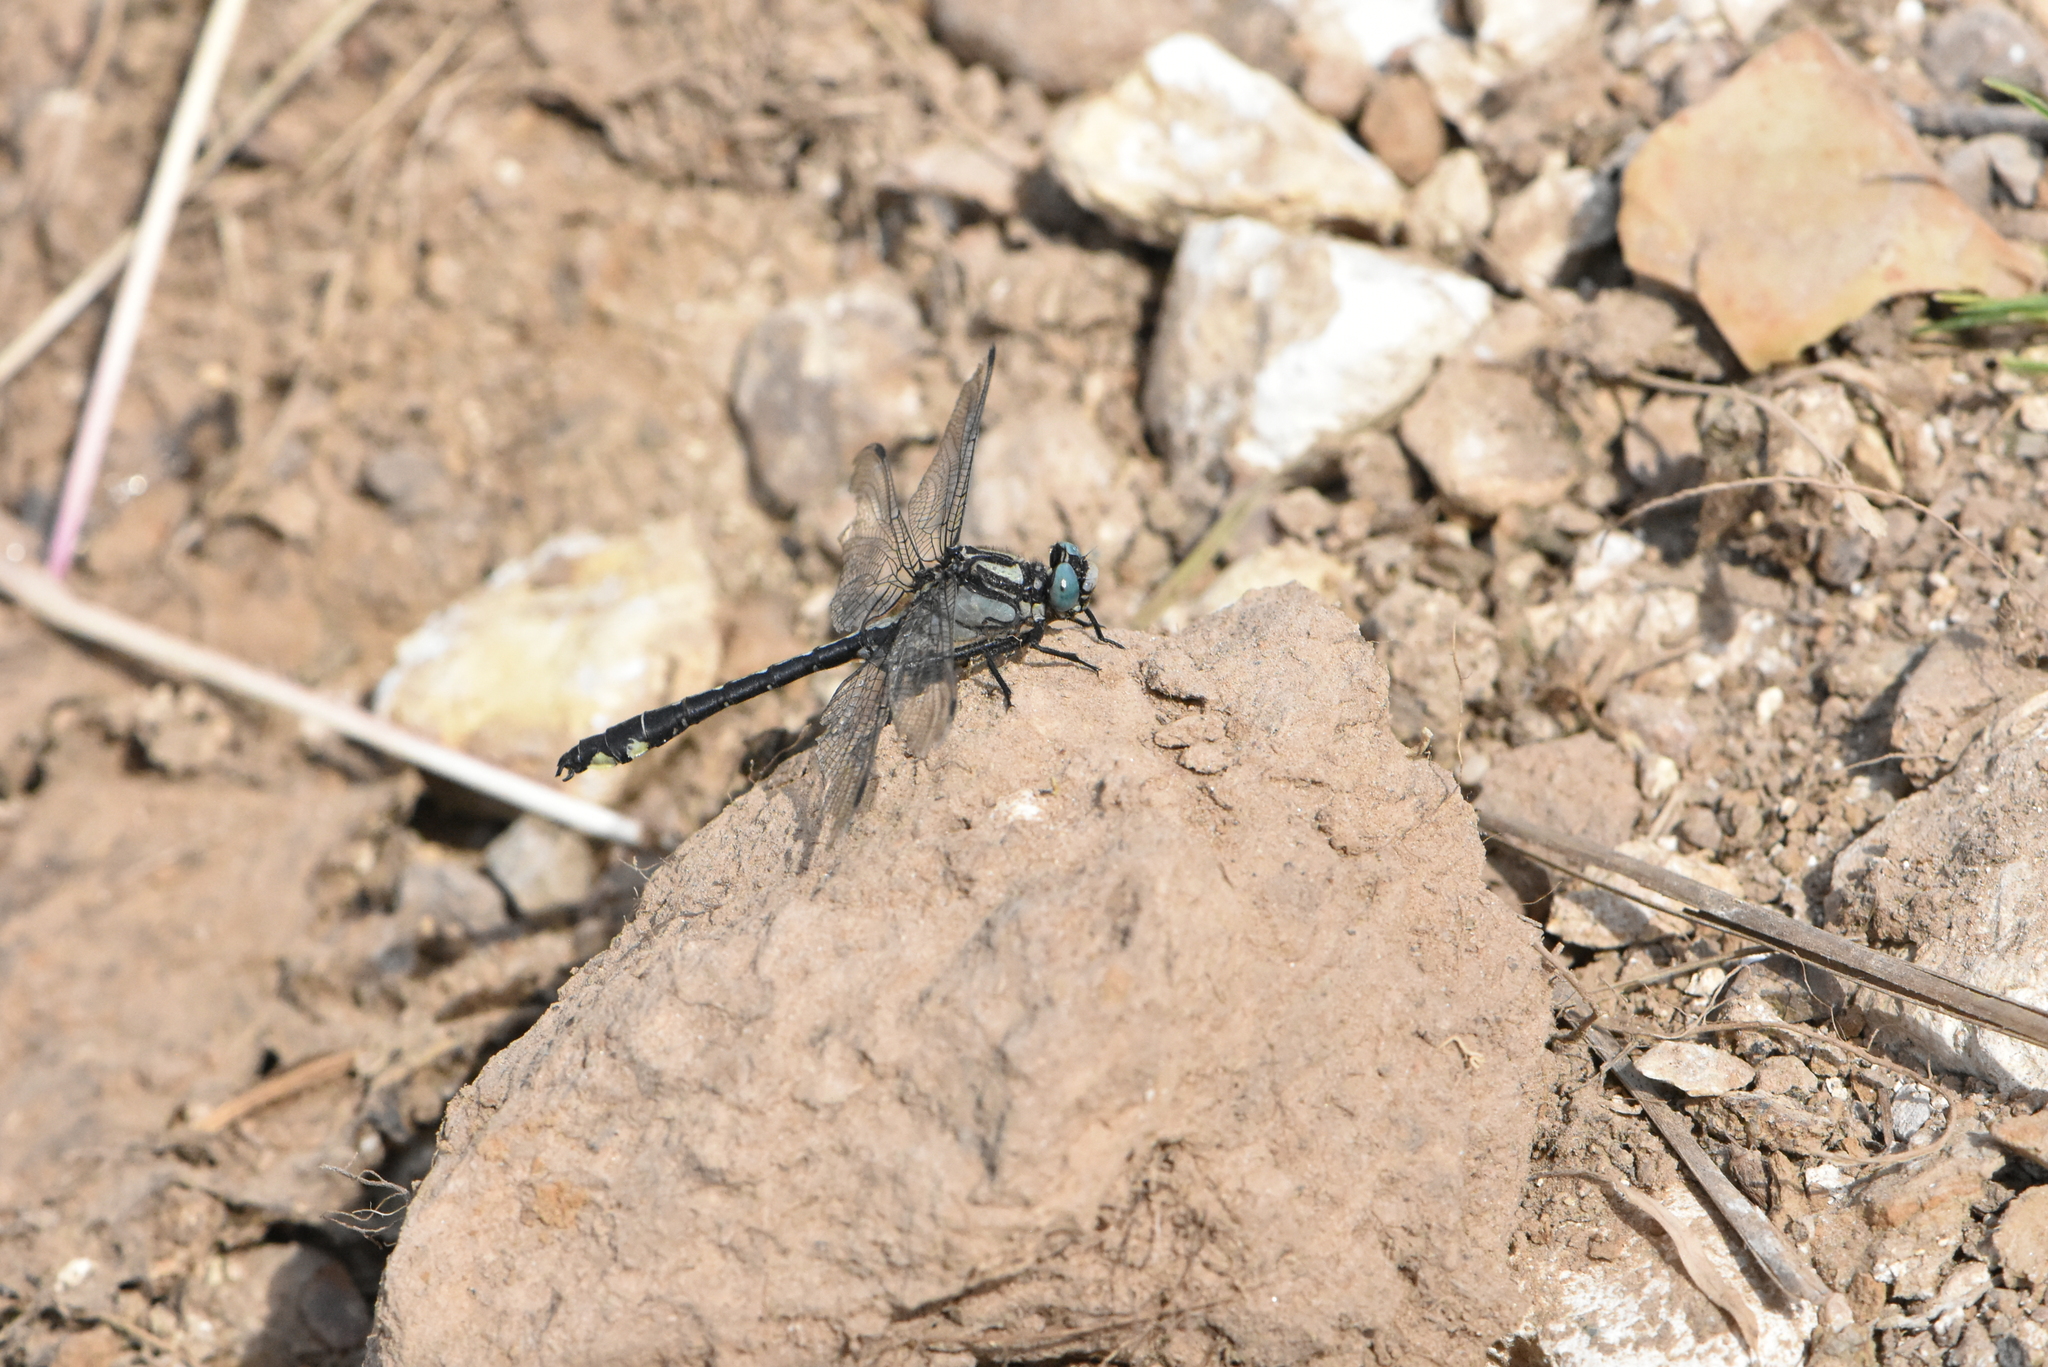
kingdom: Animalia
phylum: Arthropoda
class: Insecta
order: Odonata
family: Gomphidae
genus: Gomphus
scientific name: Gomphus vulgatissimus
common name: Club-tailed dragonfly
